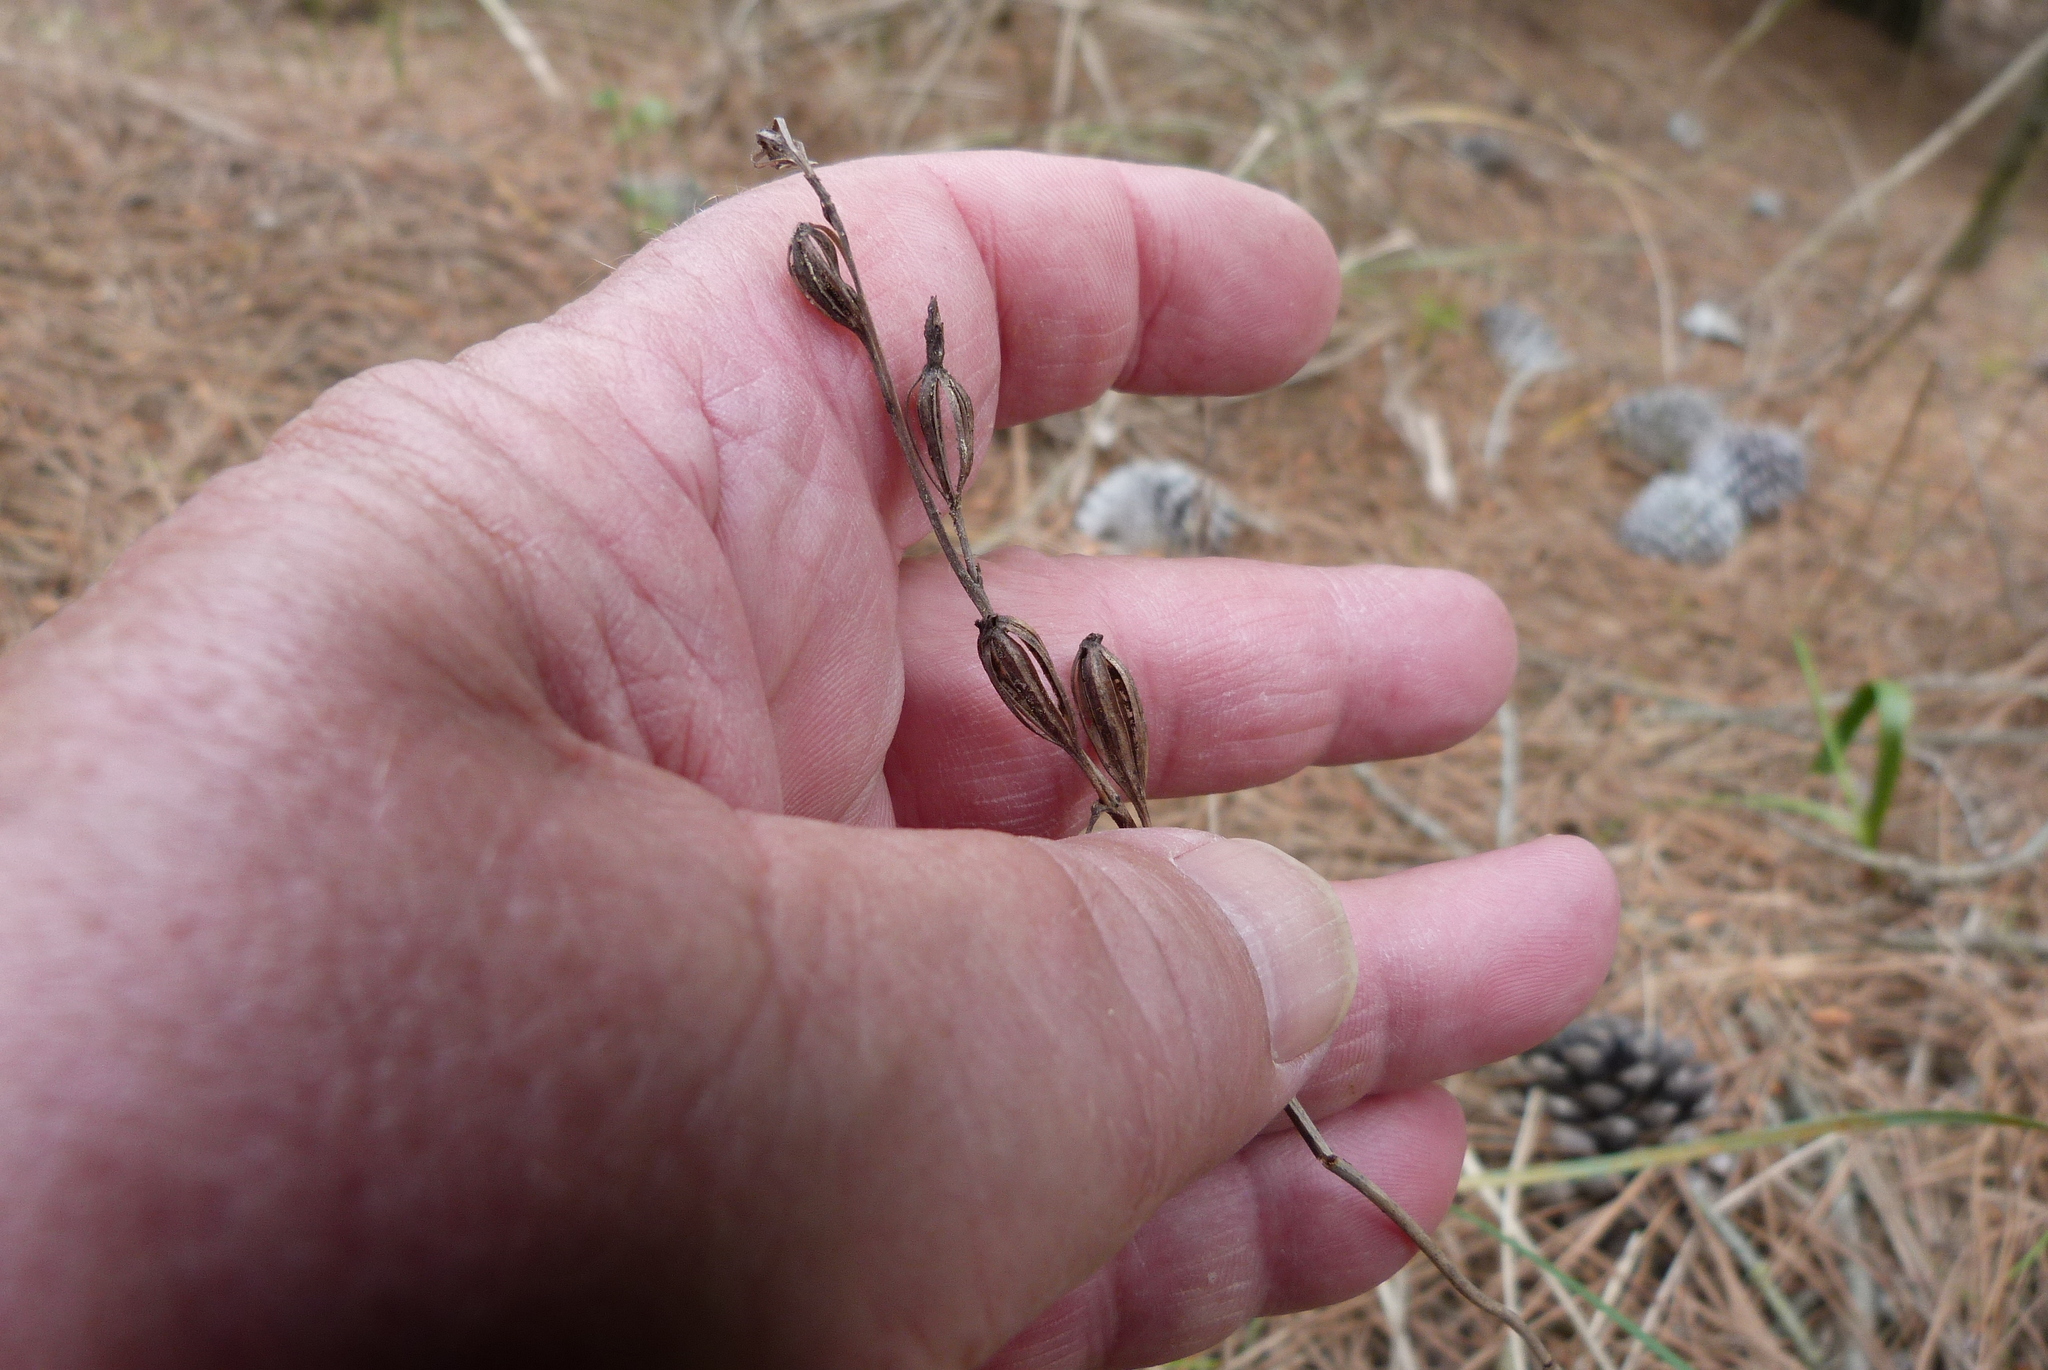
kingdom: Plantae
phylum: Tracheophyta
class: Liliopsida
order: Asparagales
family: Orchidaceae
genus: Thelymitra
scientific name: Thelymitra longifolia
